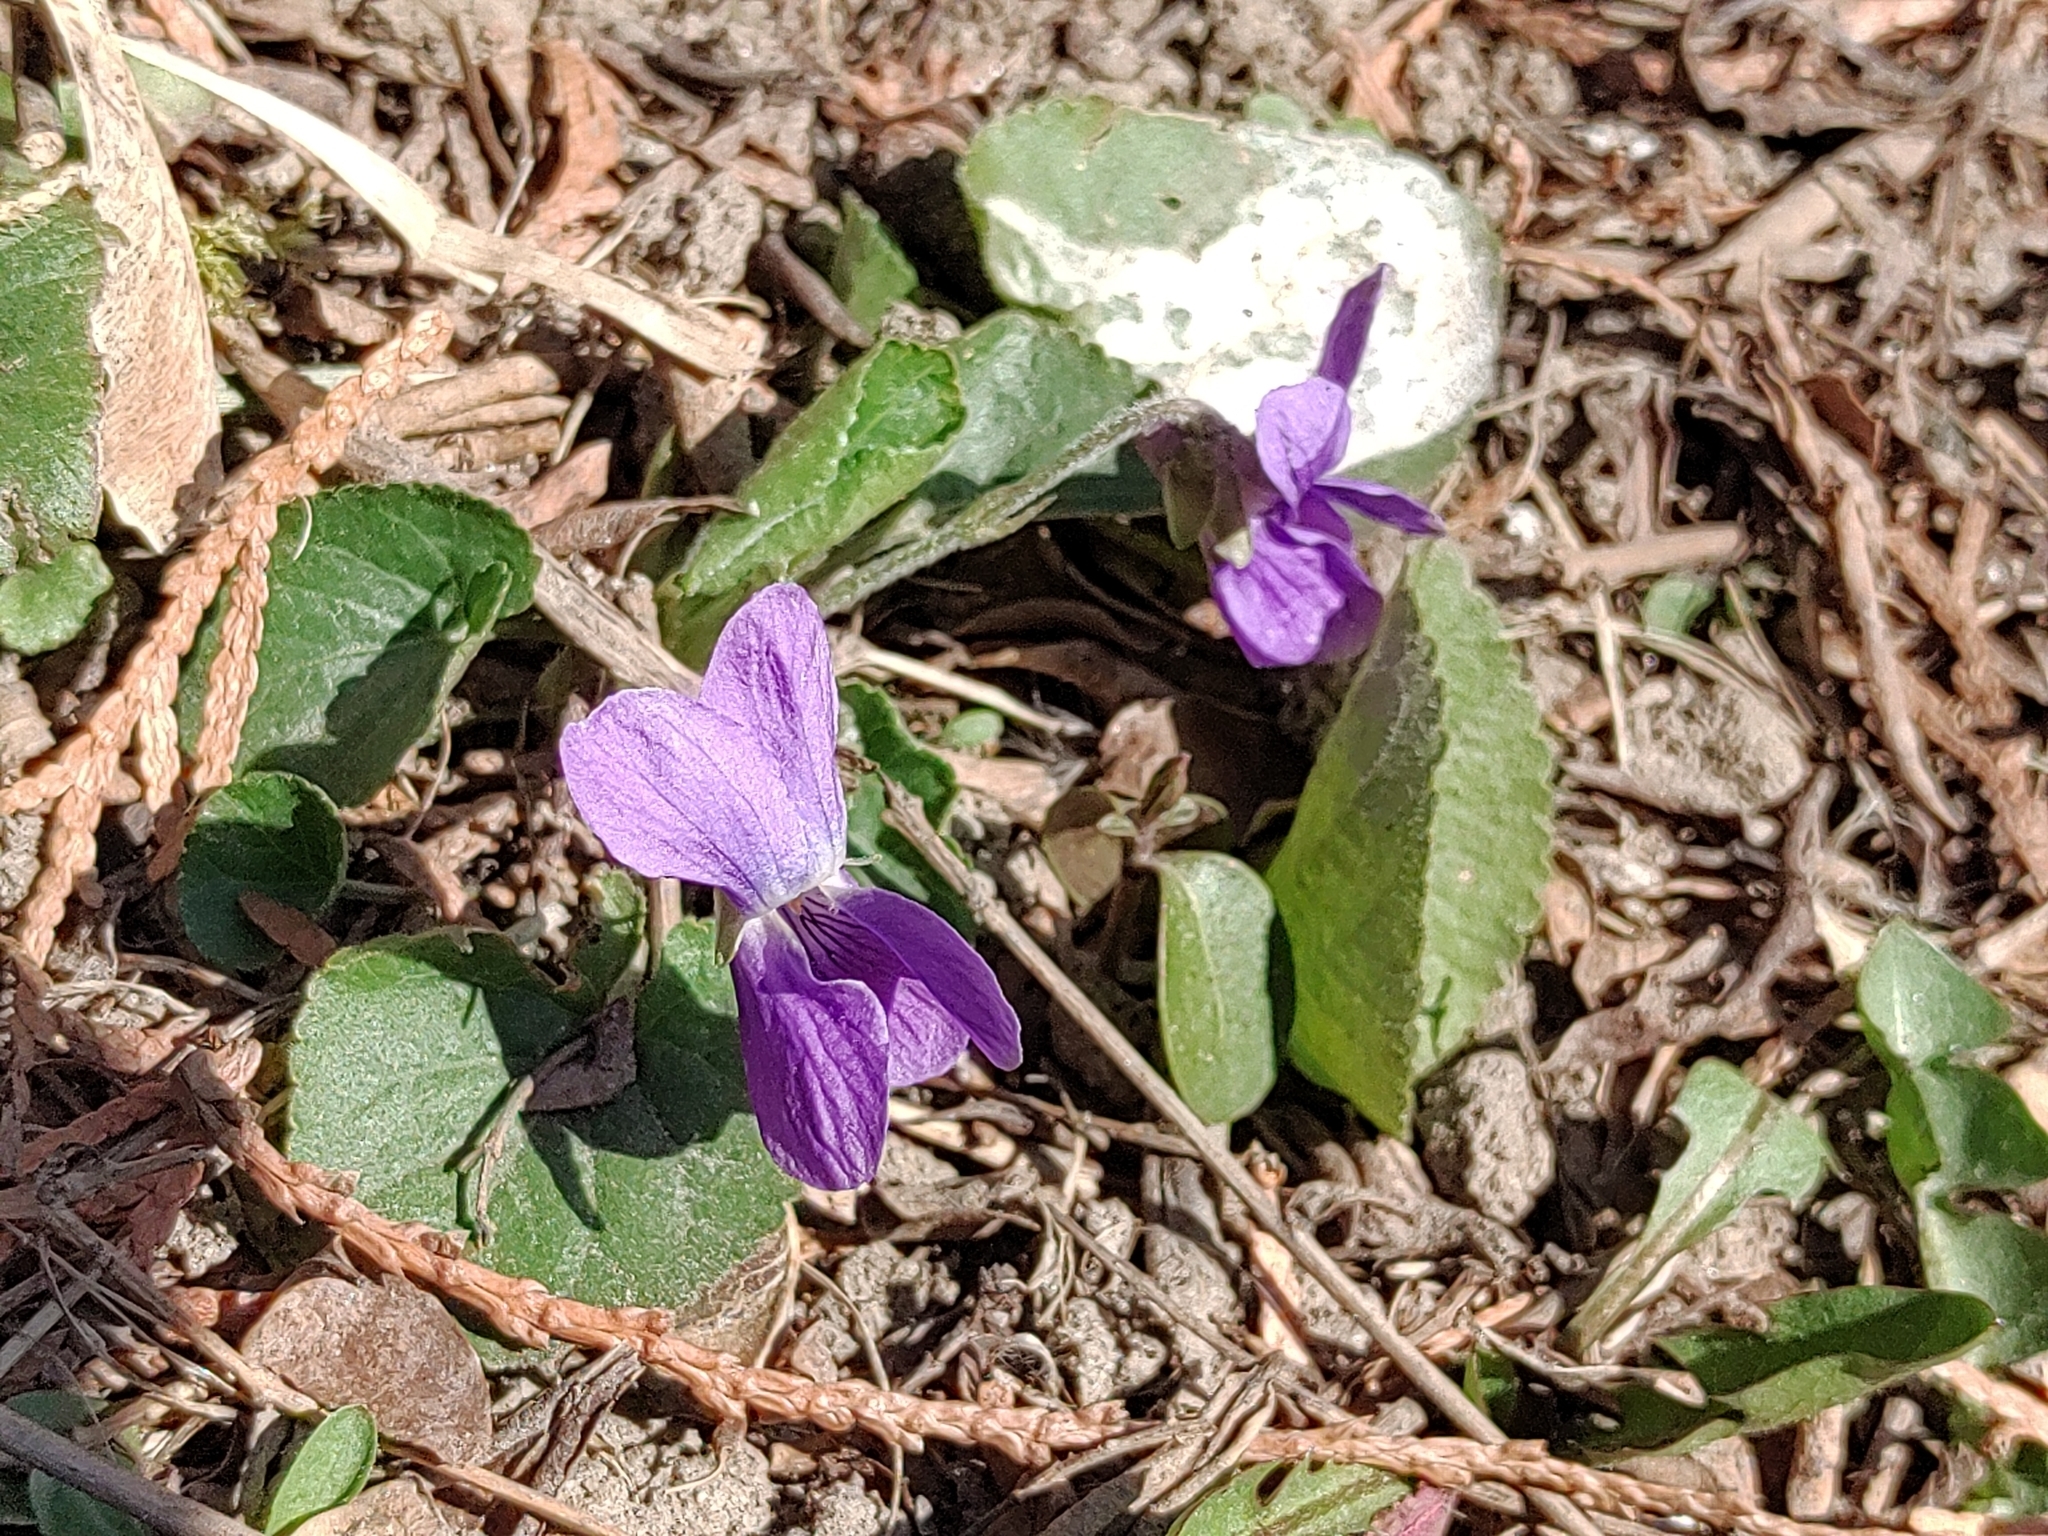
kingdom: Plantae
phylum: Tracheophyta
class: Magnoliopsida
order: Malpighiales
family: Violaceae
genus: Viola
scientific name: Viola odorata
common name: Sweet violet
